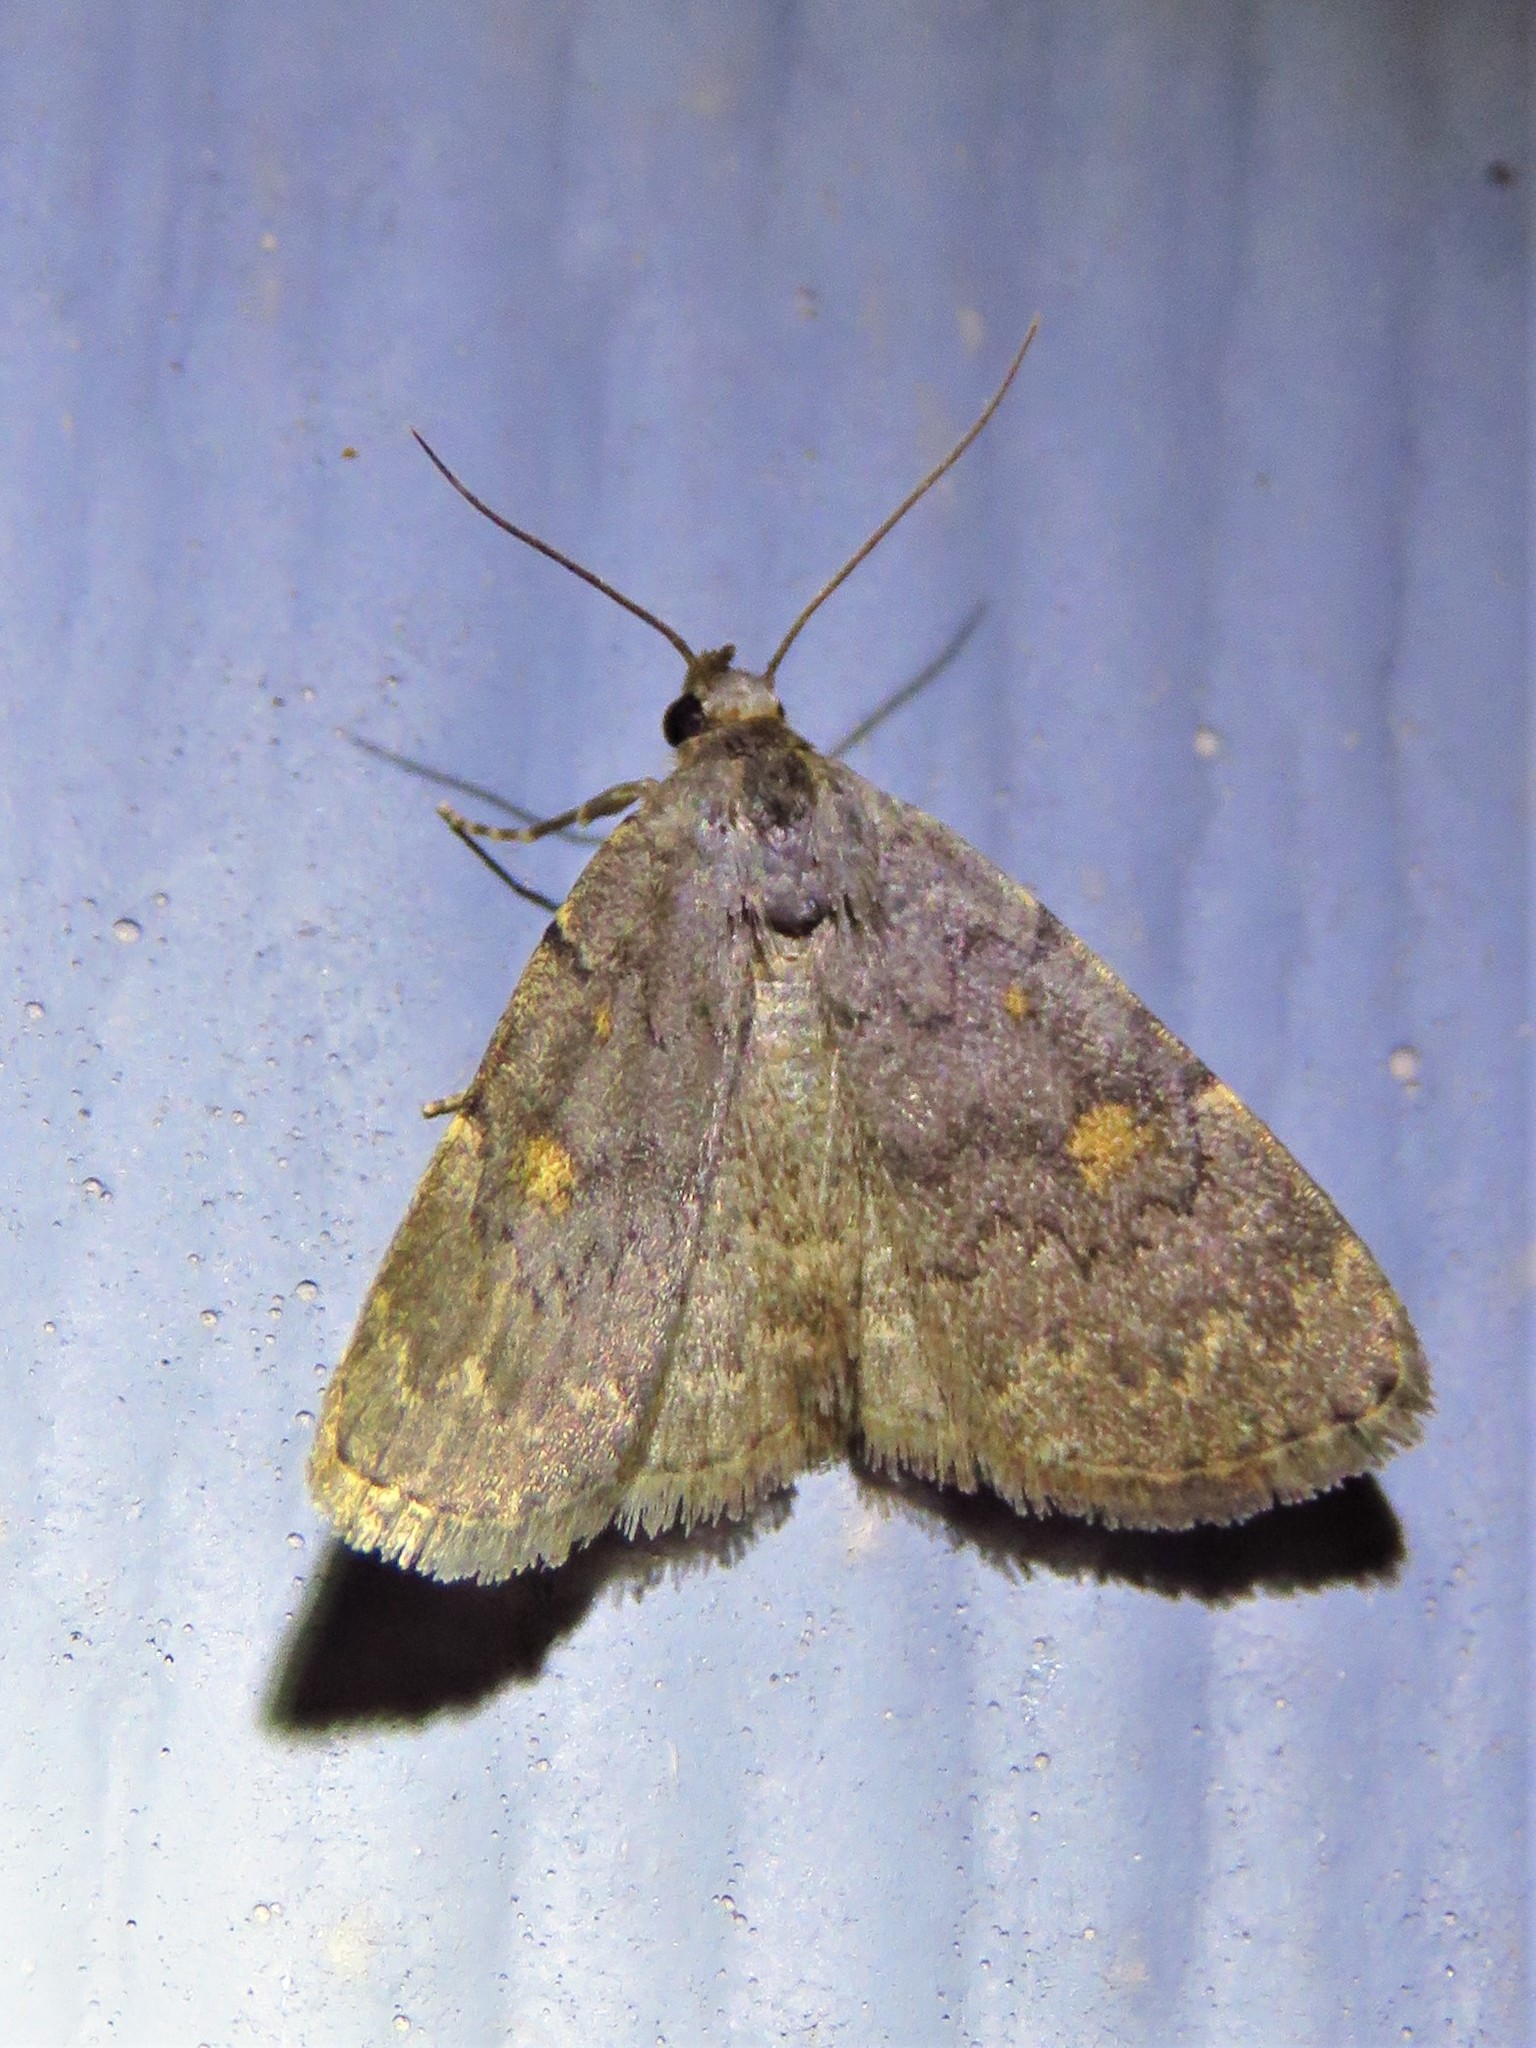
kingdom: Animalia
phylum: Arthropoda
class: Insecta
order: Lepidoptera
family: Erebidae
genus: Idia
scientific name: Idia aemula
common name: Common idia moth
